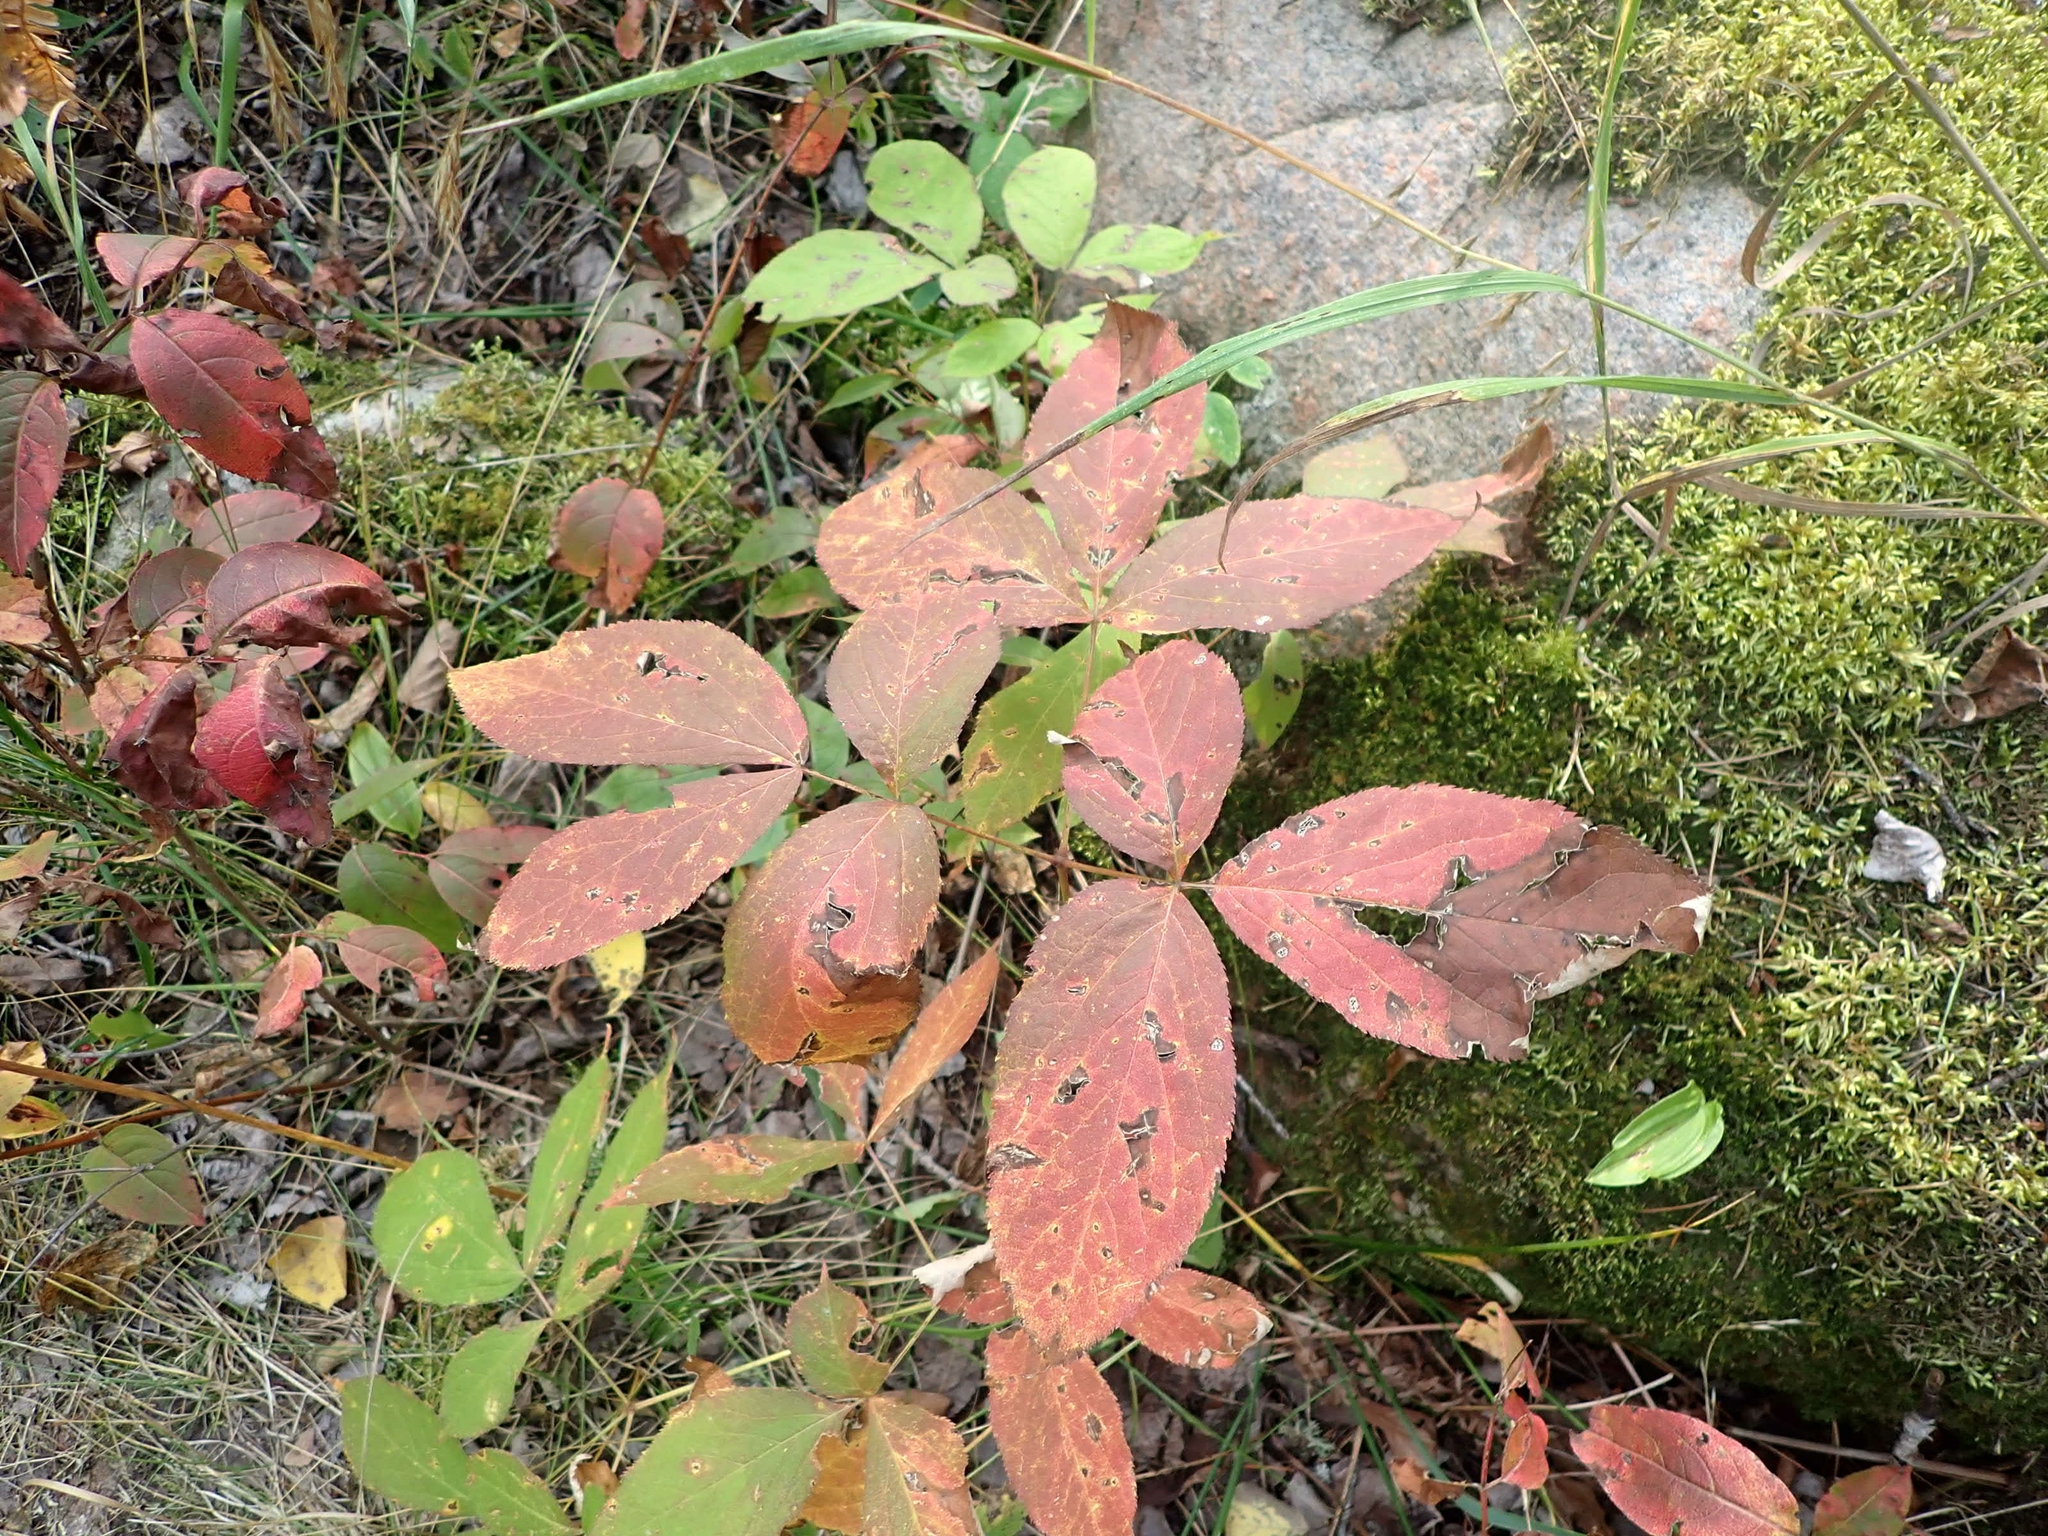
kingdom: Plantae
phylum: Tracheophyta
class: Magnoliopsida
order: Apiales
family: Araliaceae
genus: Aralia
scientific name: Aralia nudicaulis
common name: Wild sarsaparilla
